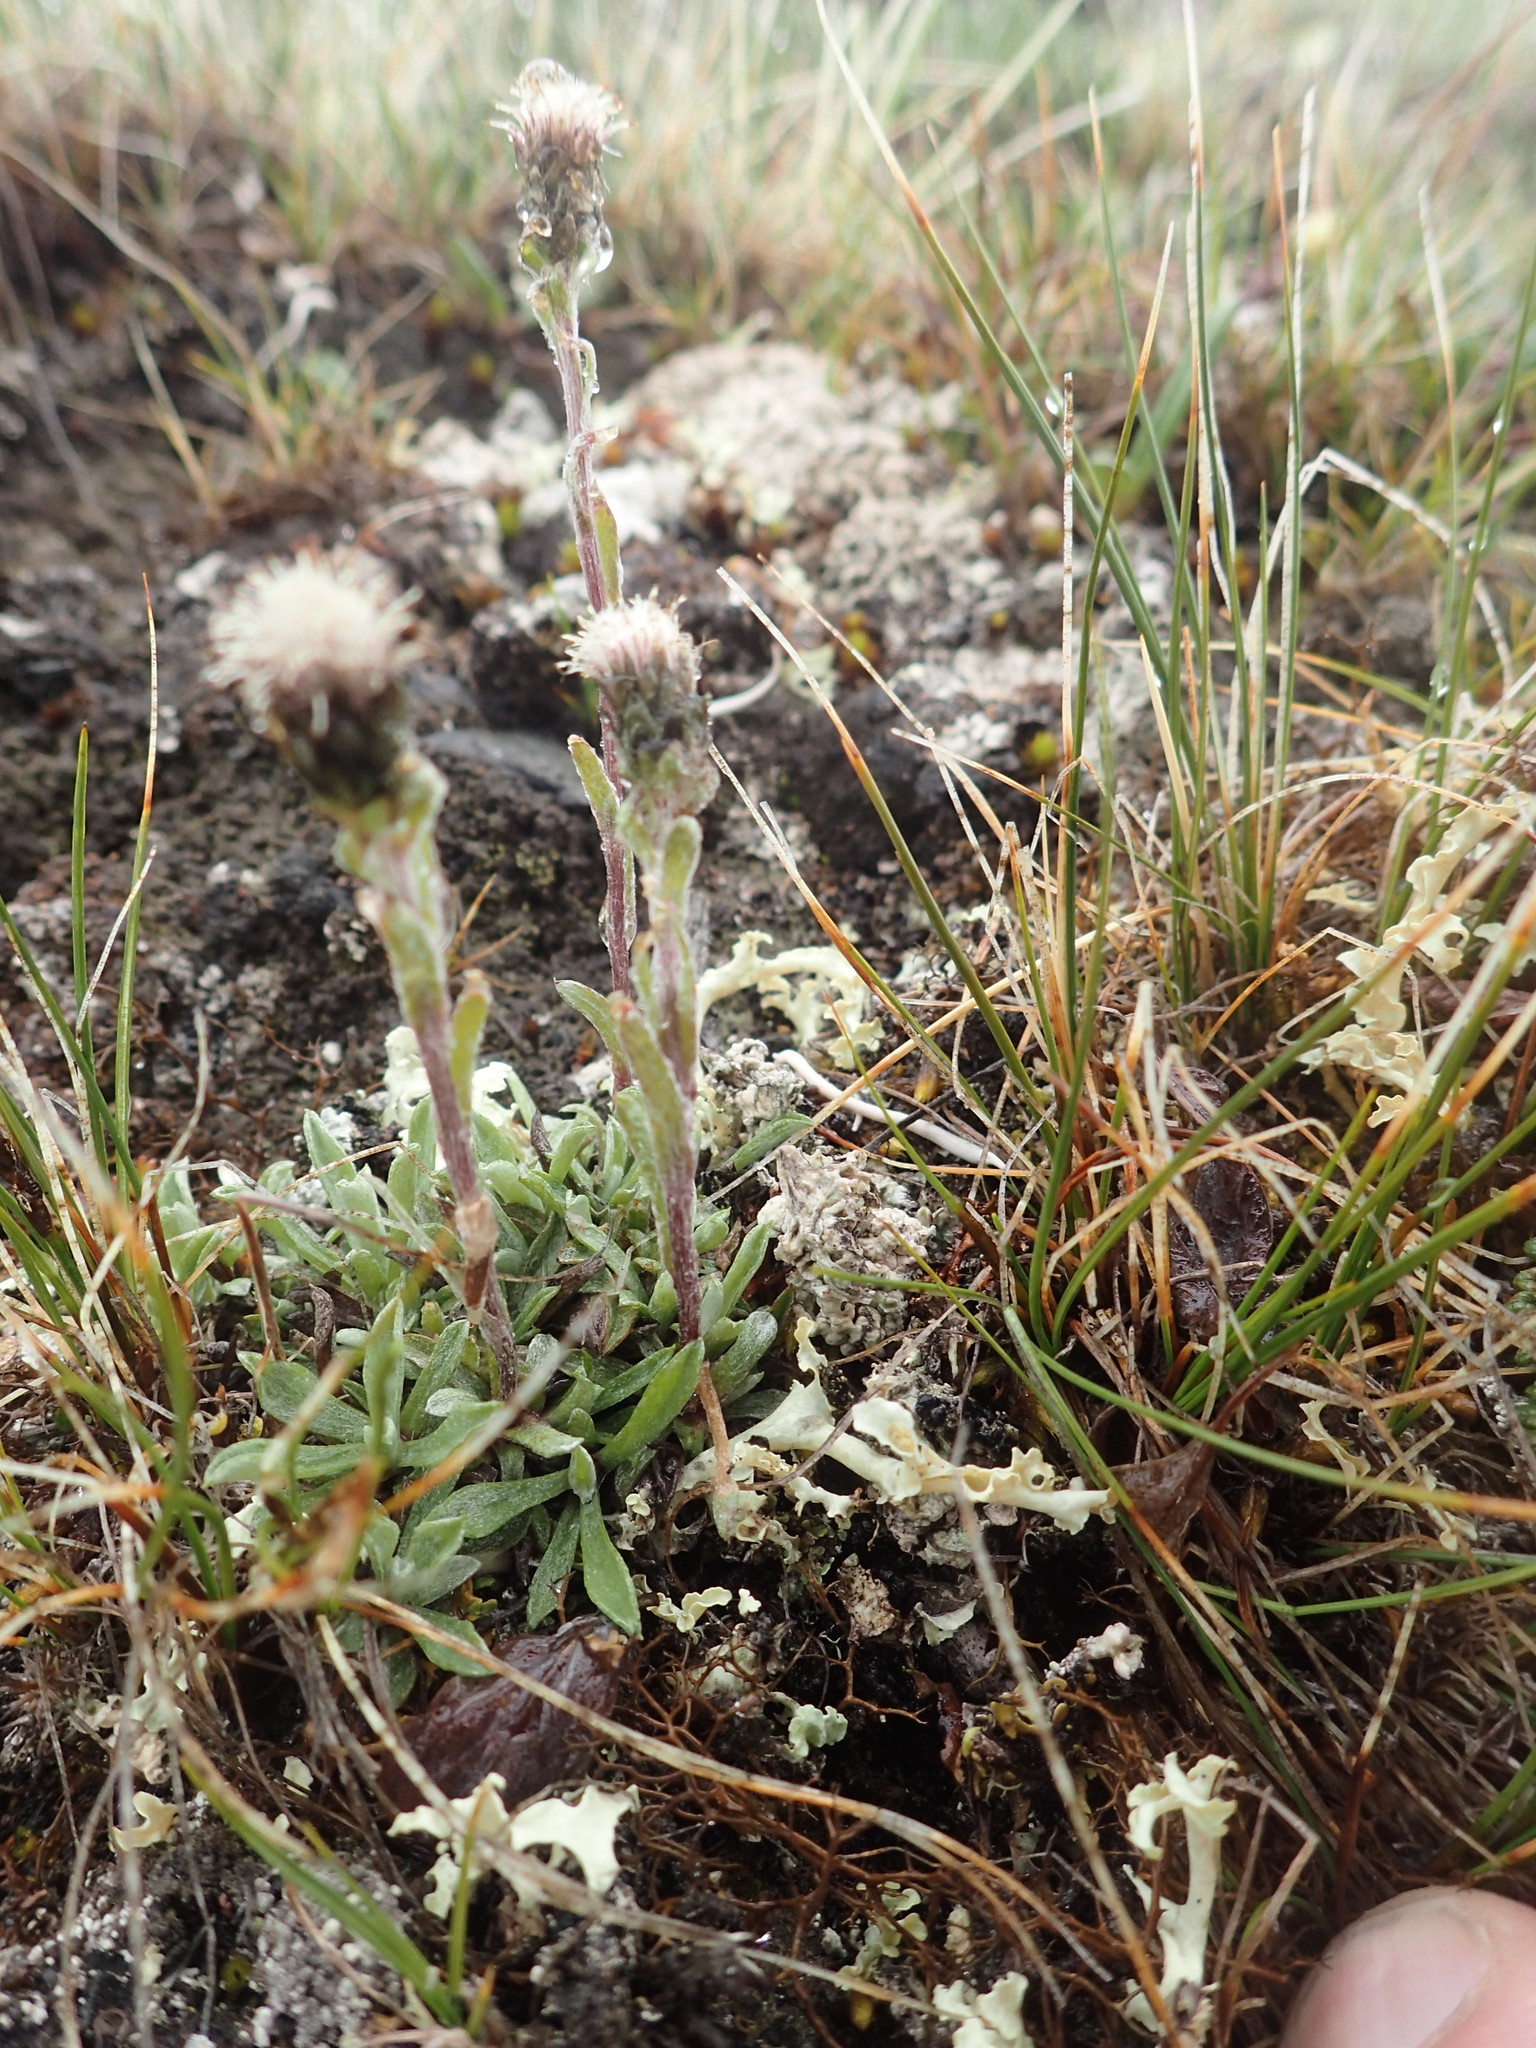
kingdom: Plantae
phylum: Tracheophyta
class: Magnoliopsida
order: Asterales
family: Asteraceae
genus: Antennaria
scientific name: Antennaria monocephala
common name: Pygmy pussytoes
